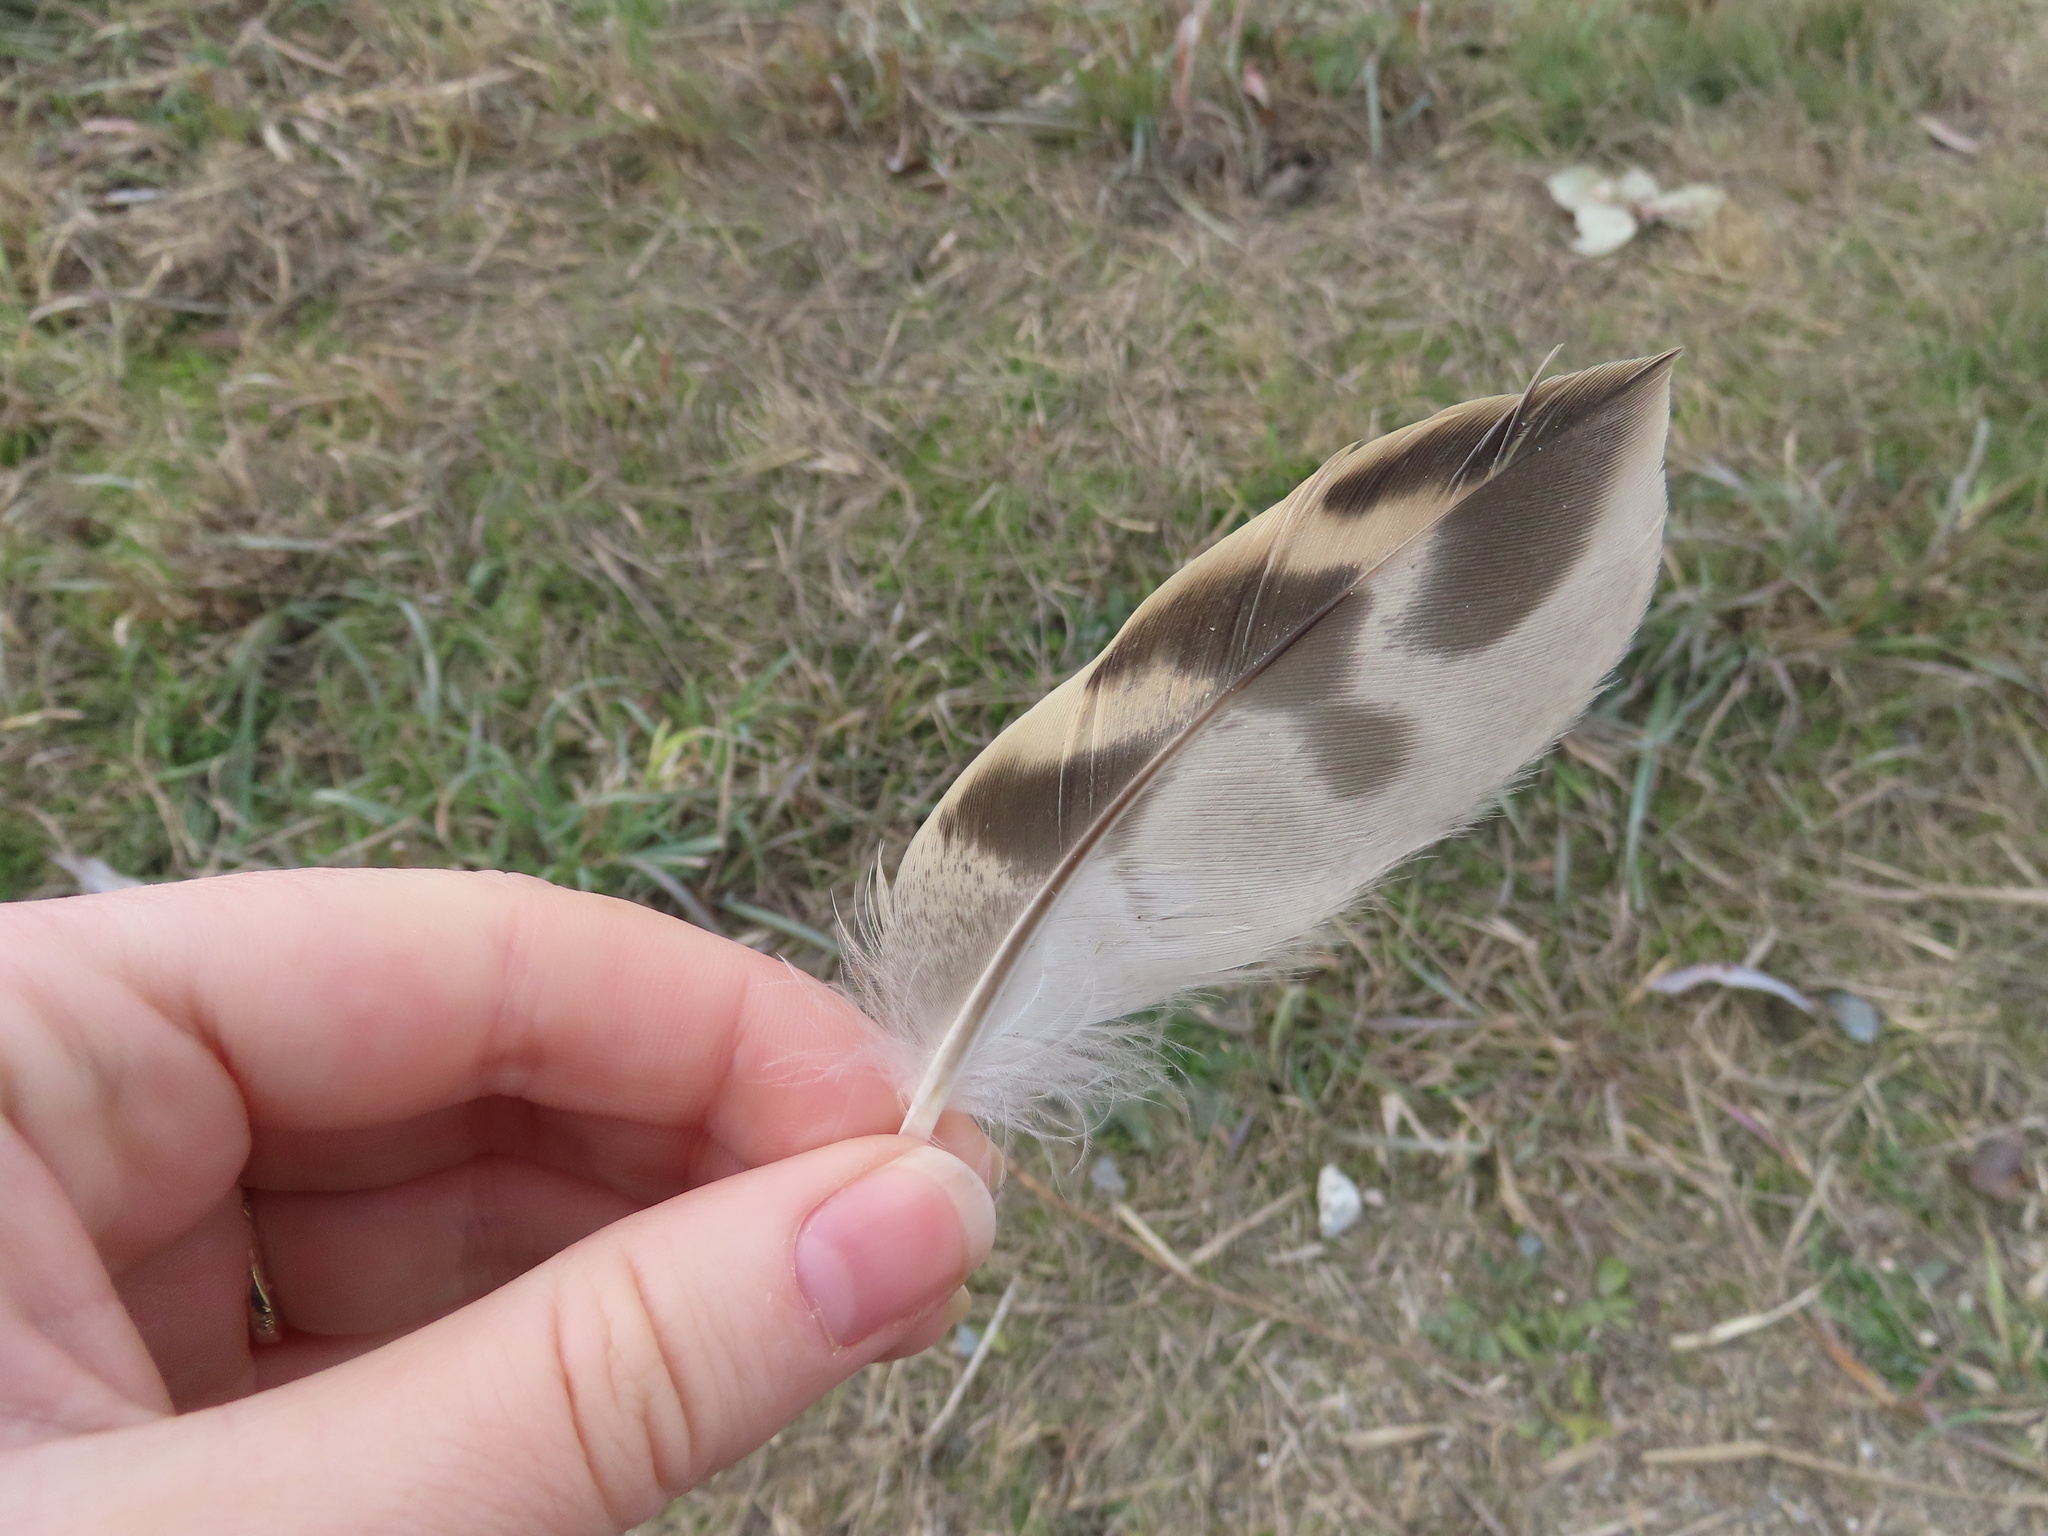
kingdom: Animalia
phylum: Chordata
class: Aves
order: Anseriformes
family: Anatidae
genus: Anas
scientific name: Anas platyrhynchos
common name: Mallard
